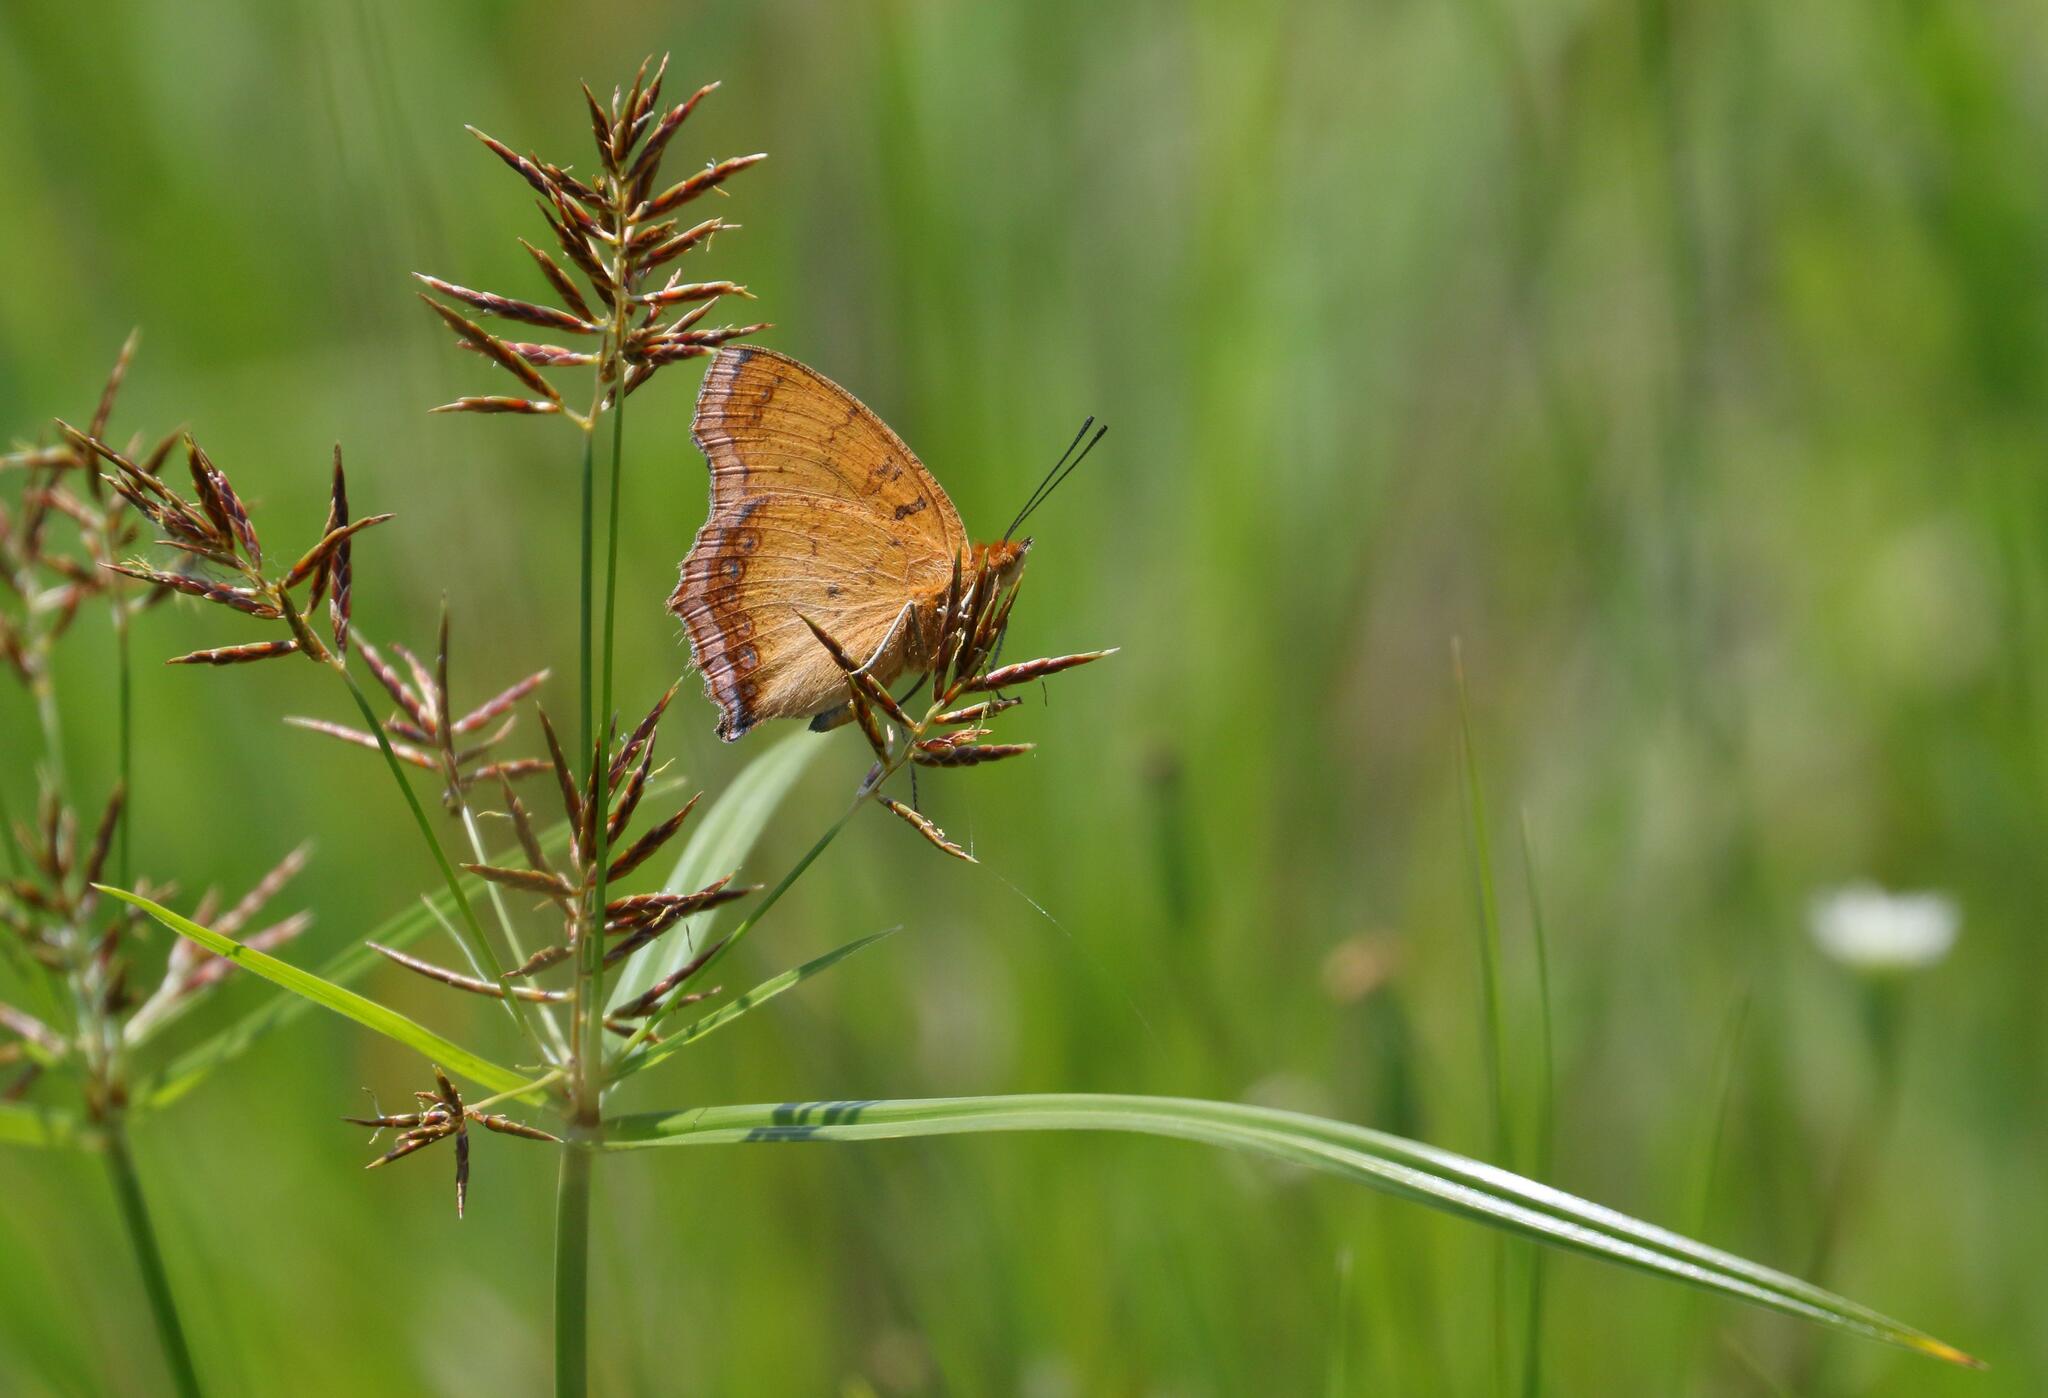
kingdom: Animalia
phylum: Arthropoda
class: Insecta
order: Lepidoptera
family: Nymphalidae
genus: Catacroptera
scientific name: Catacroptera cloanthe
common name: Pirate
